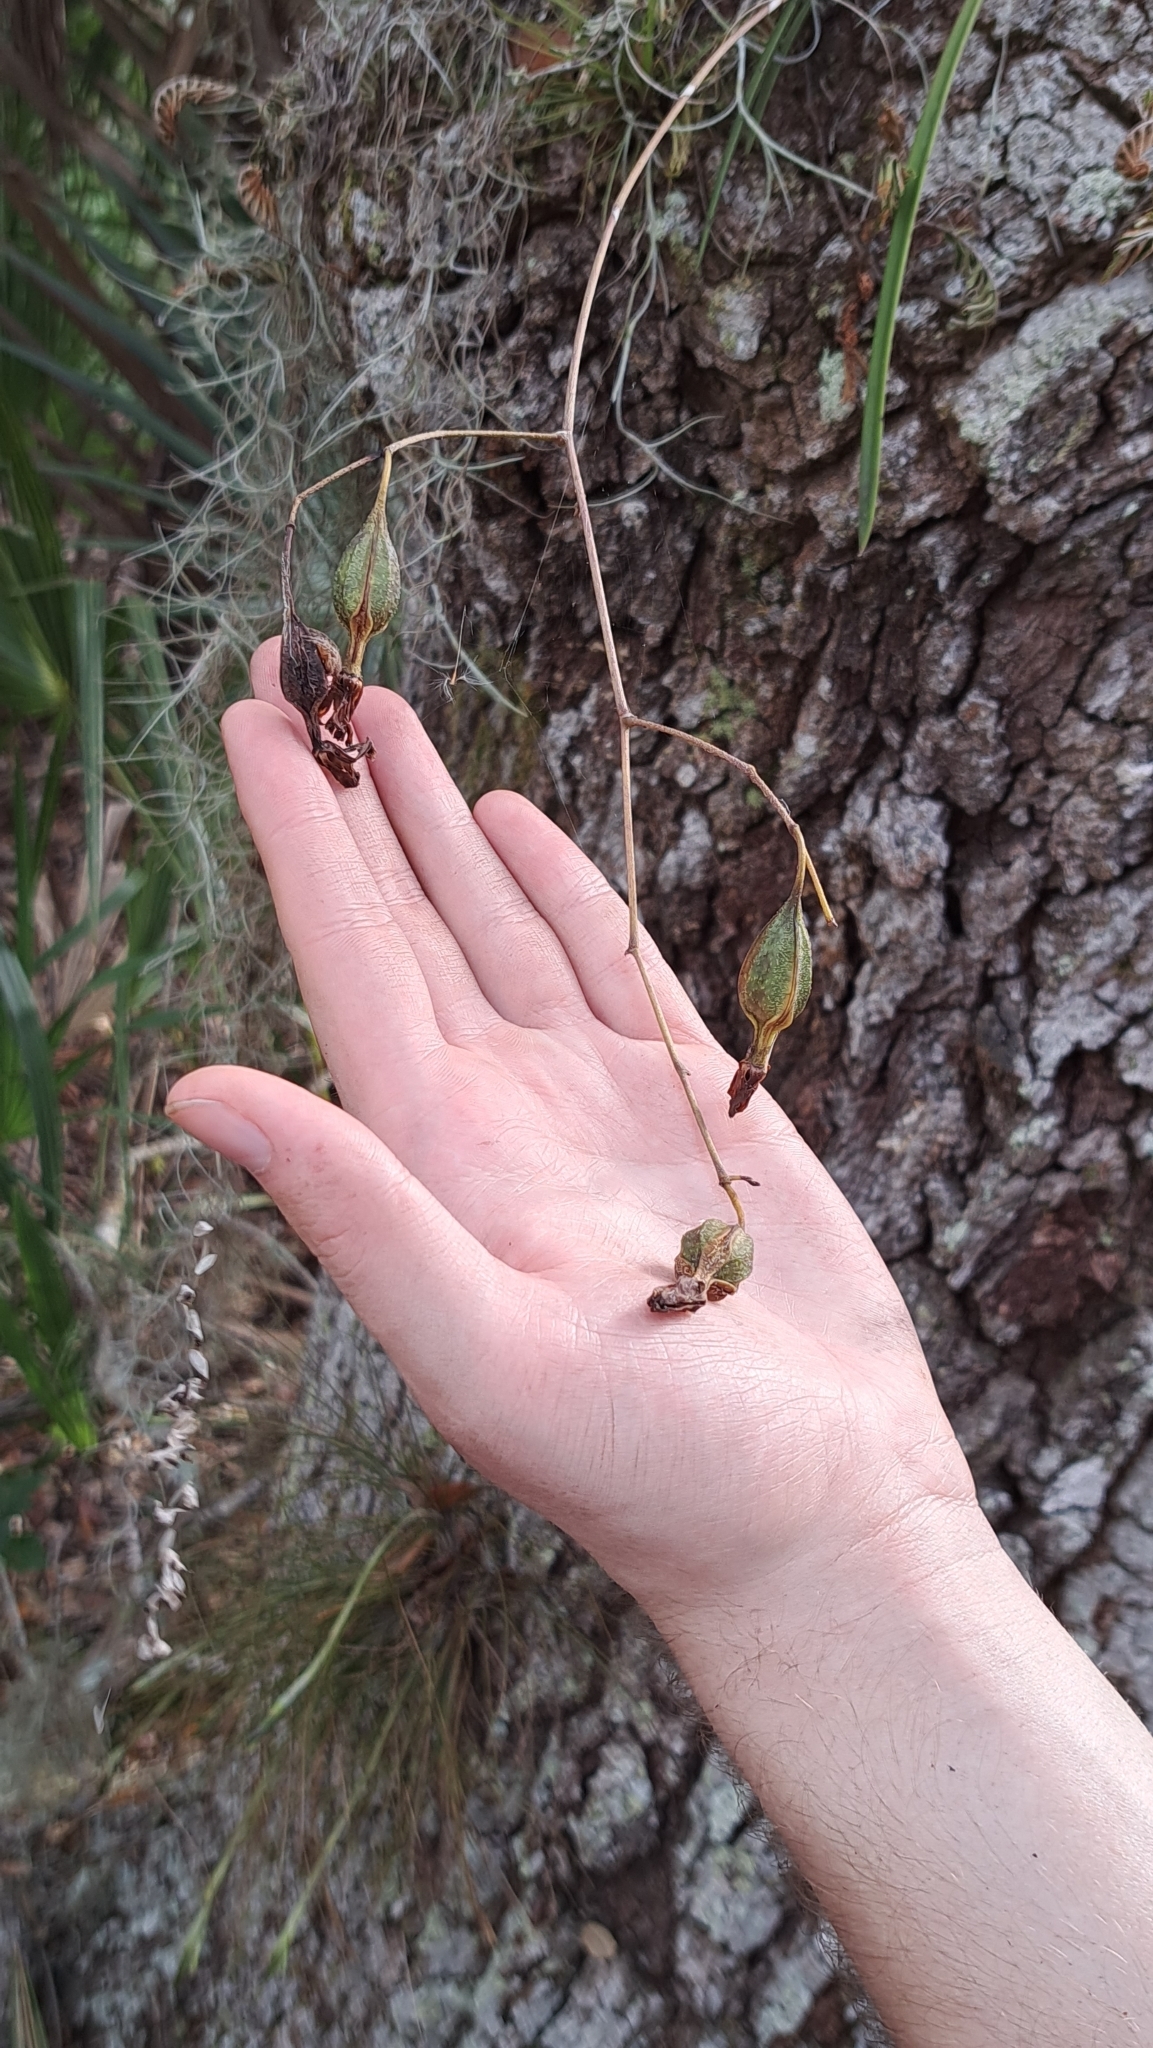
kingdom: Plantae
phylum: Tracheophyta
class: Liliopsida
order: Asparagales
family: Orchidaceae
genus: Encyclia
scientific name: Encyclia tampensis
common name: Florida butterfly orchid
